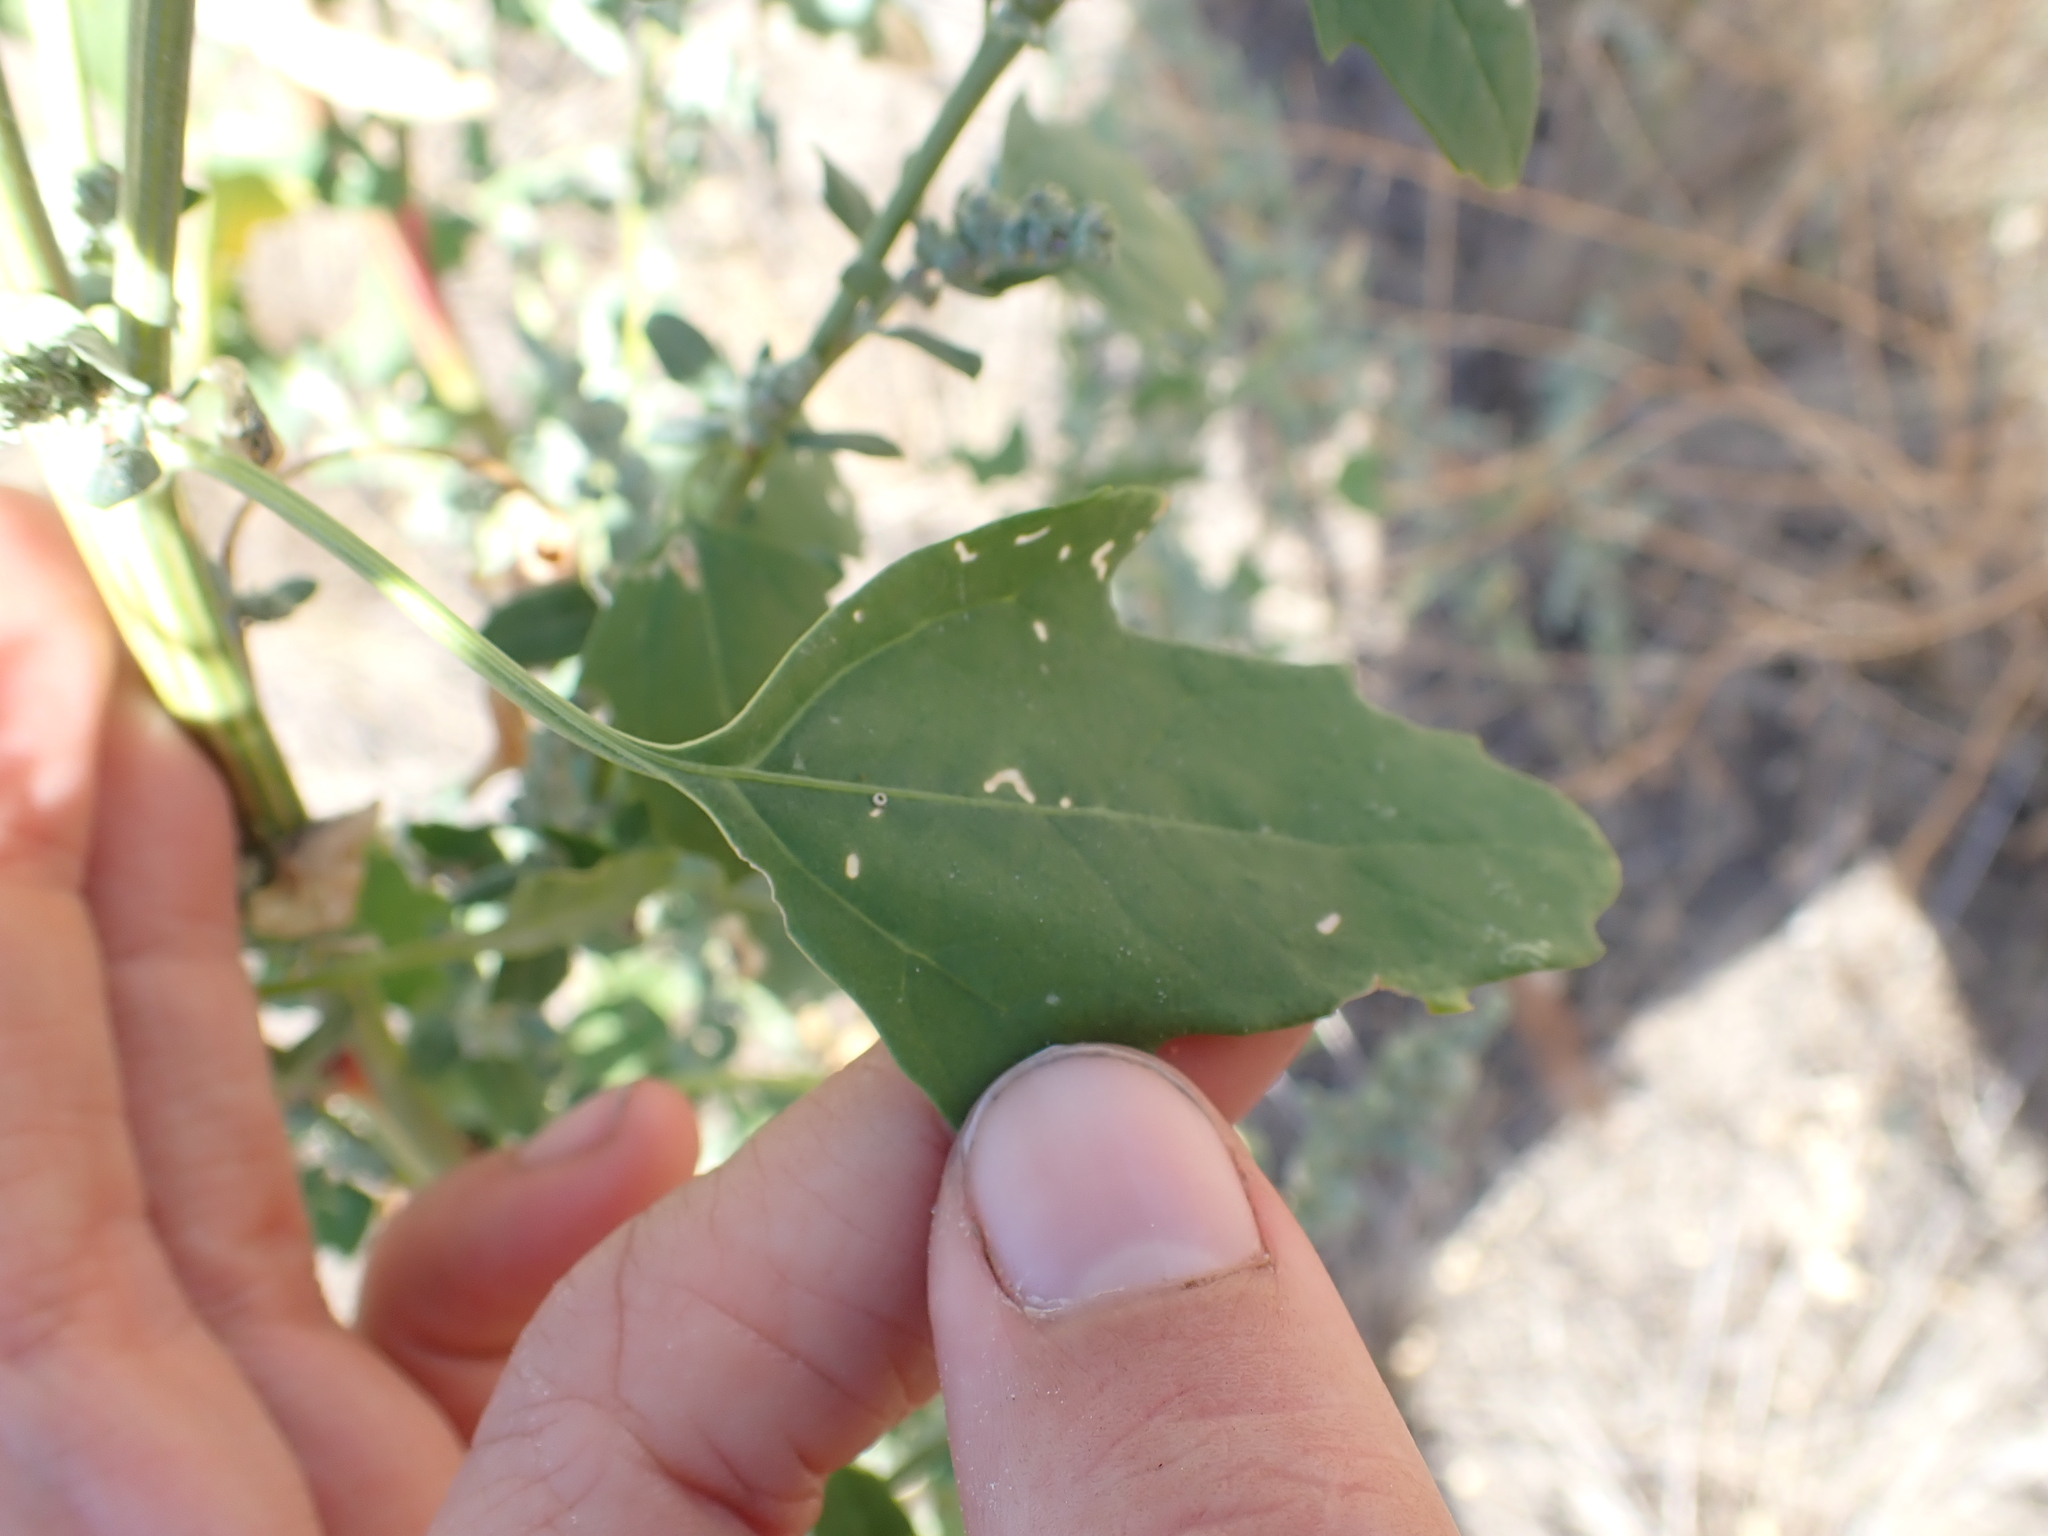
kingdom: Plantae
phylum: Tracheophyta
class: Magnoliopsida
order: Caryophyllales
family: Amaranthaceae
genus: Chenopodium
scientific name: Chenopodium album
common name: Fat-hen
